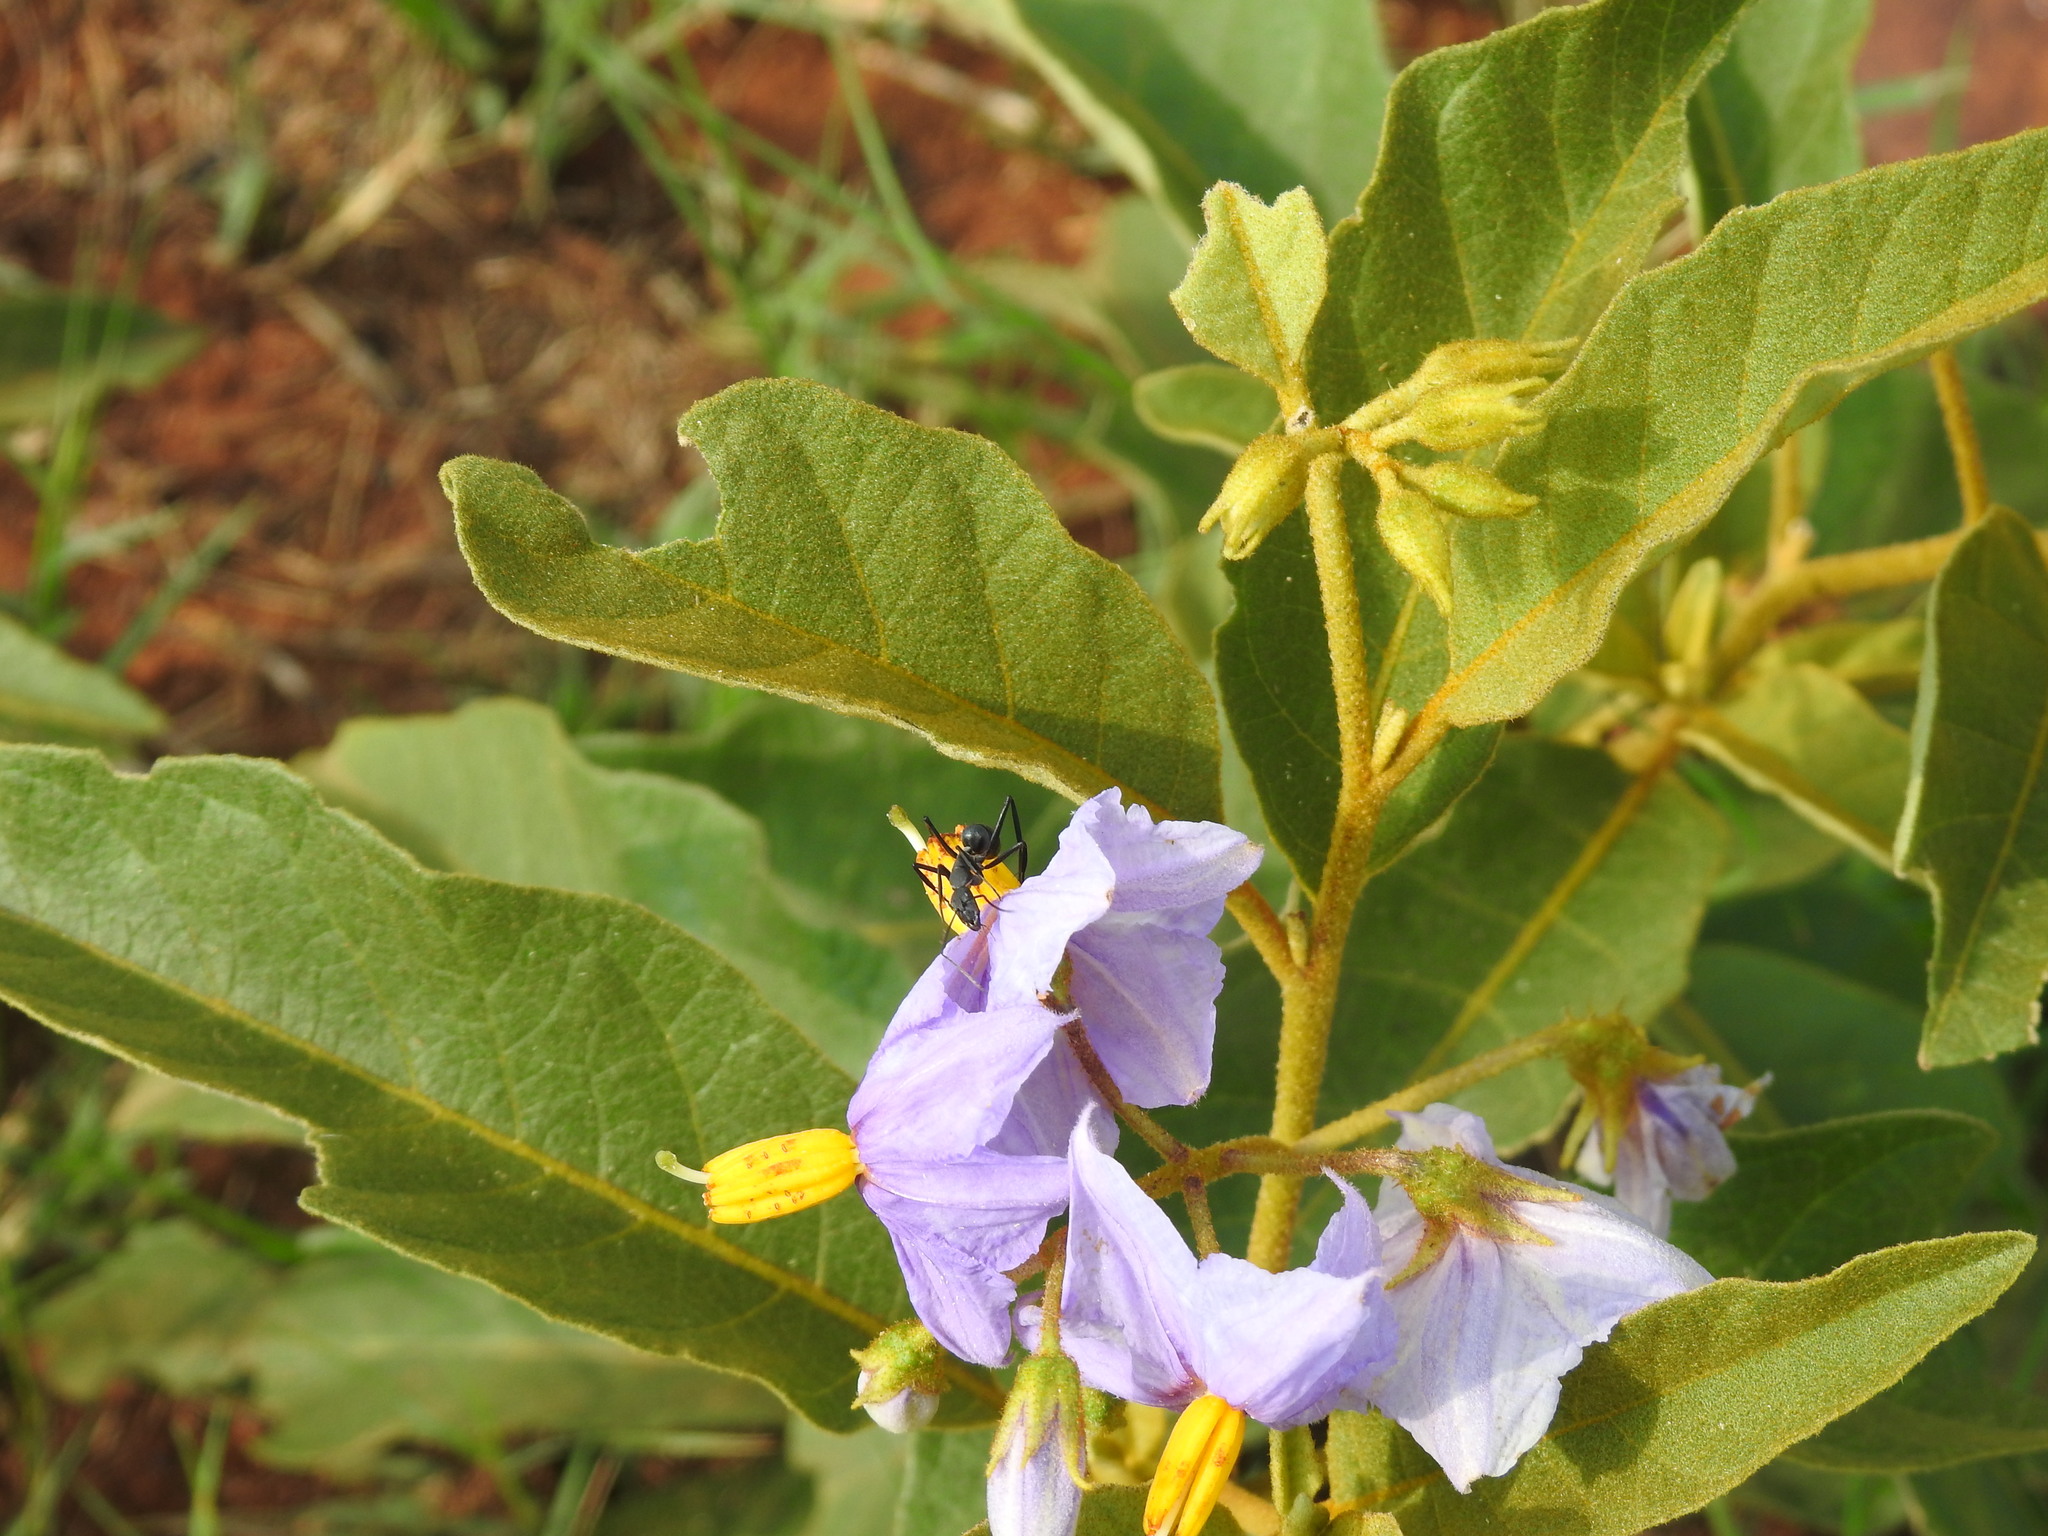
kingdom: Plantae
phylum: Tracheophyta
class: Magnoliopsida
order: Solanales
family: Solanaceae
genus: Solanum
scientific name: Solanum campylacanthum
